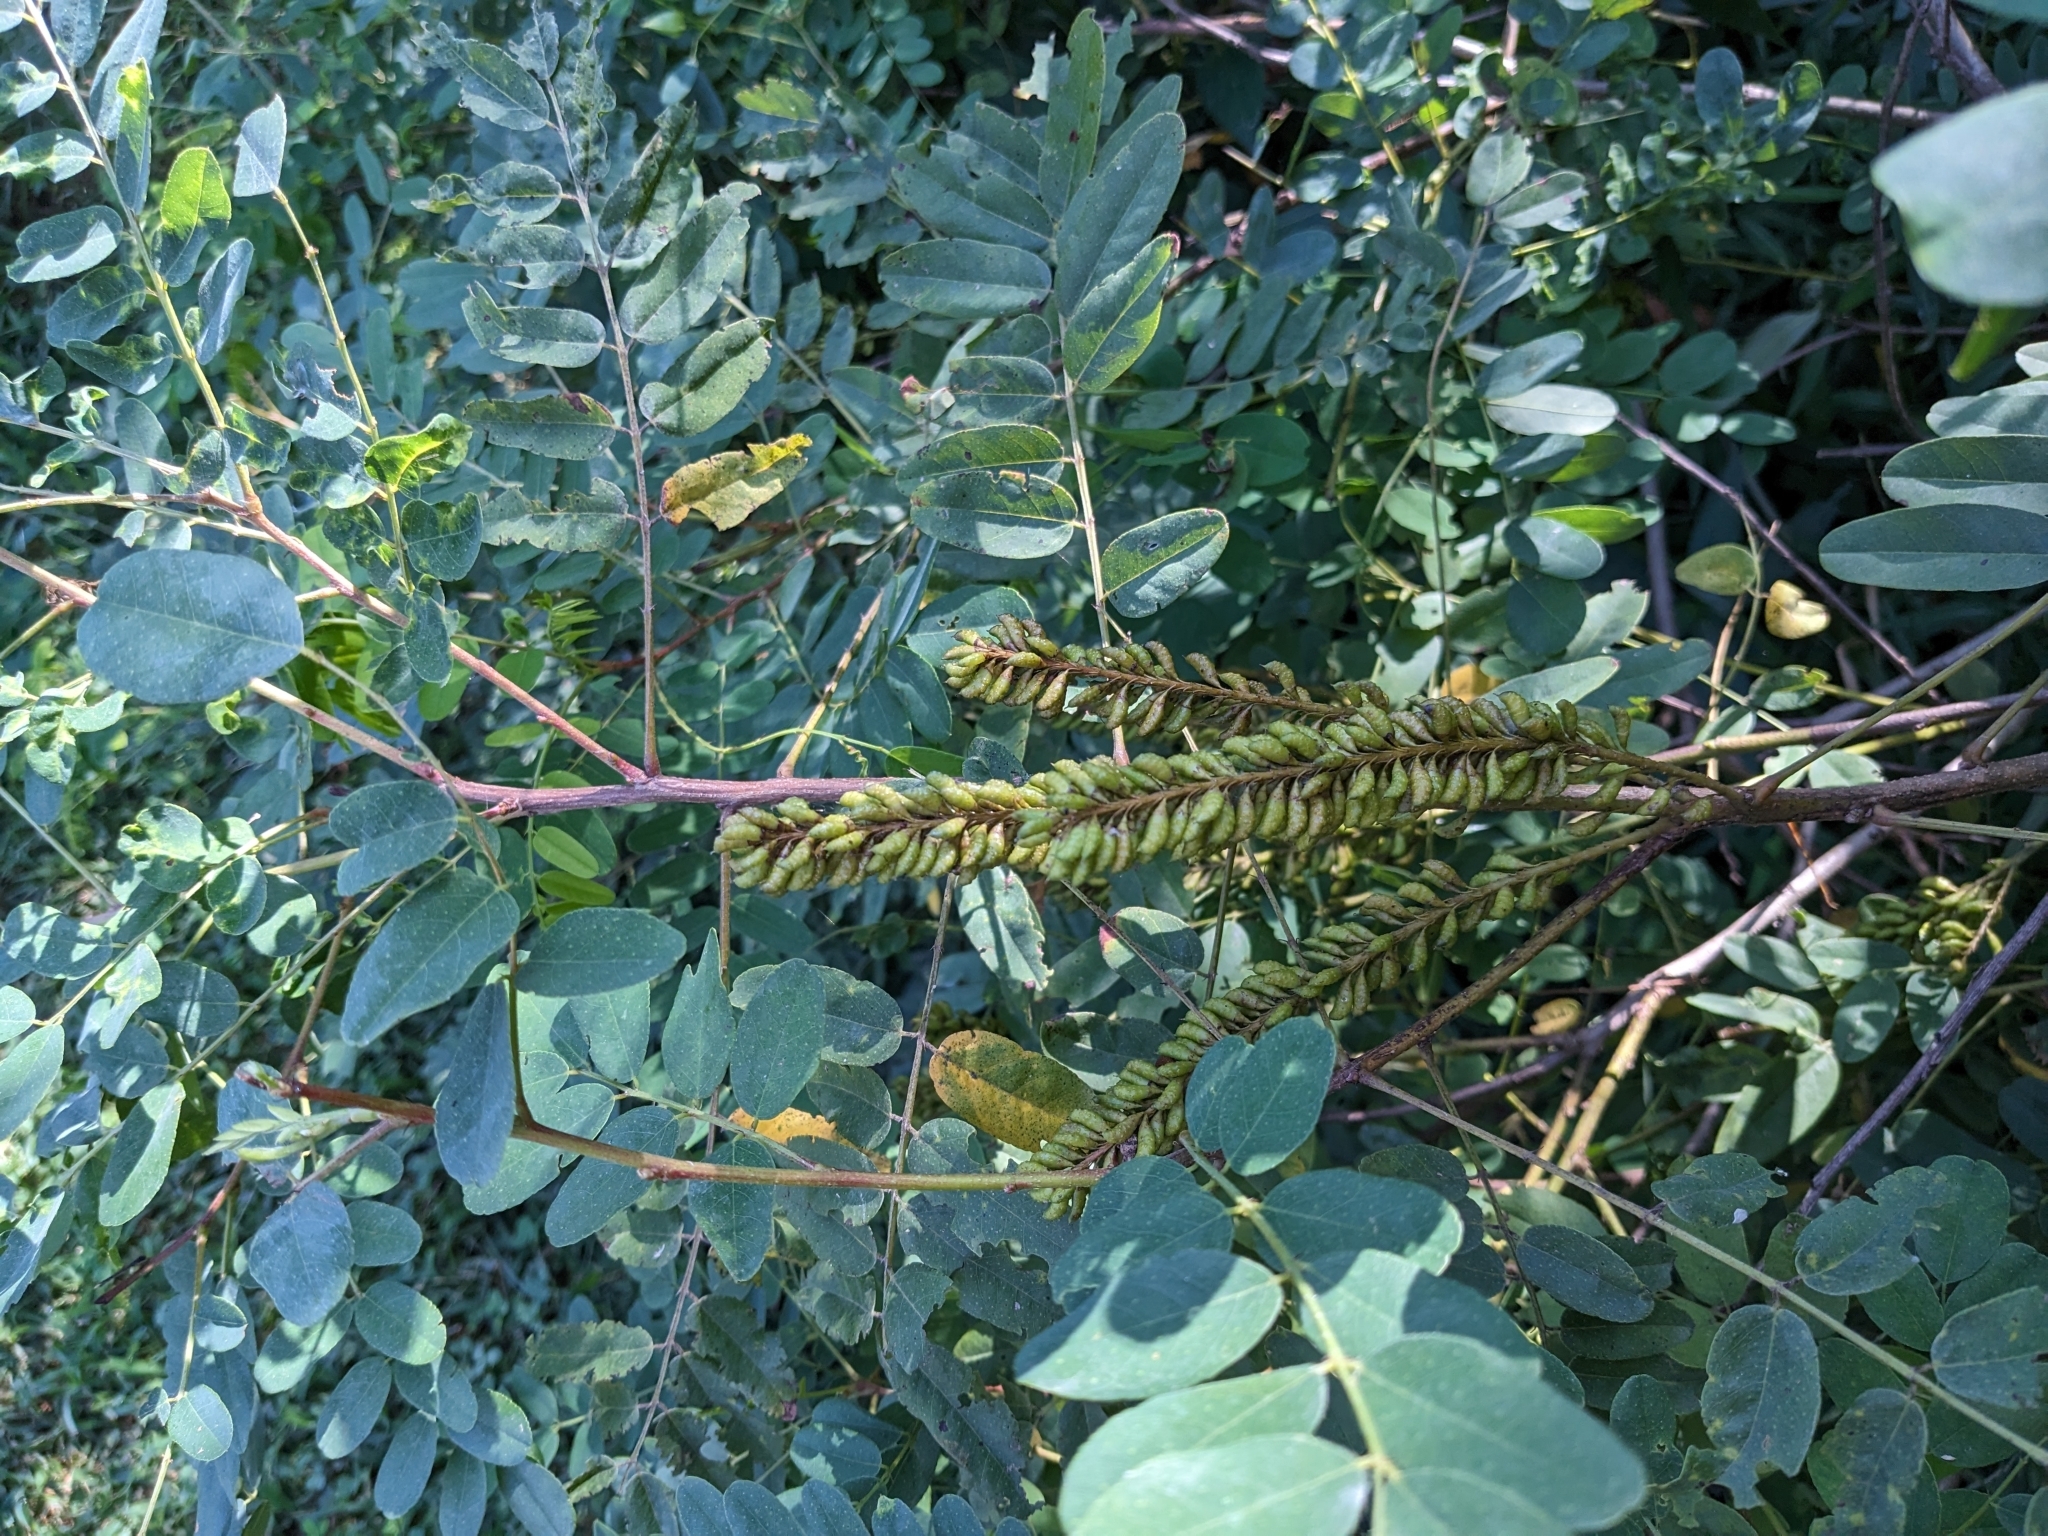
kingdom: Plantae
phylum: Tracheophyta
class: Magnoliopsida
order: Fabales
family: Fabaceae
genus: Amorpha
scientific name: Amorpha fruticosa
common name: False indigo
